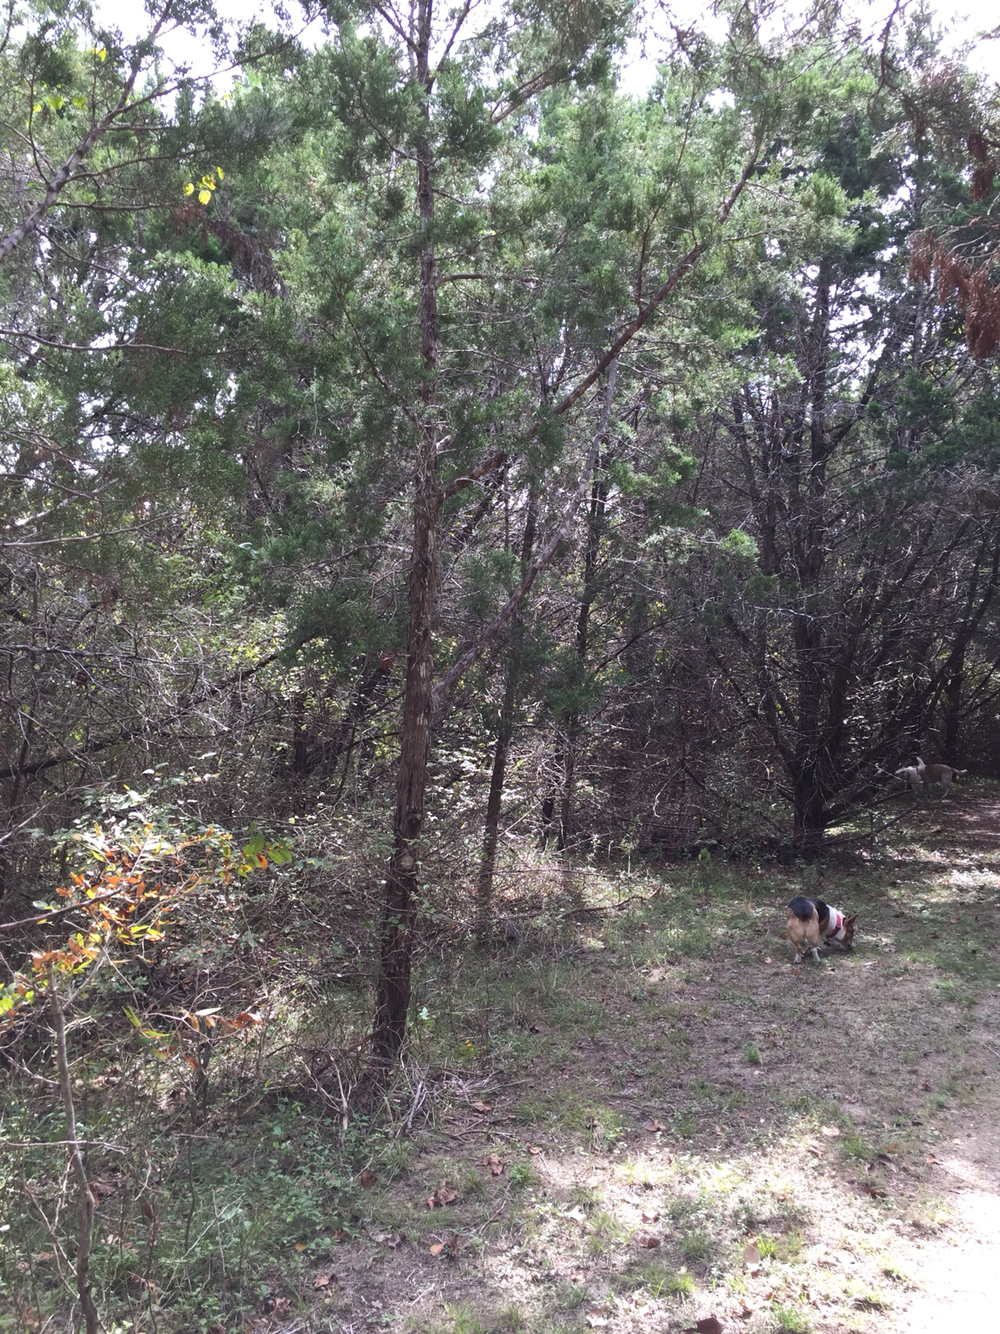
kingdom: Plantae
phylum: Tracheophyta
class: Pinopsida
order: Pinales
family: Cupressaceae
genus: Juniperus
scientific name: Juniperus ashei
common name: Mexican juniper
